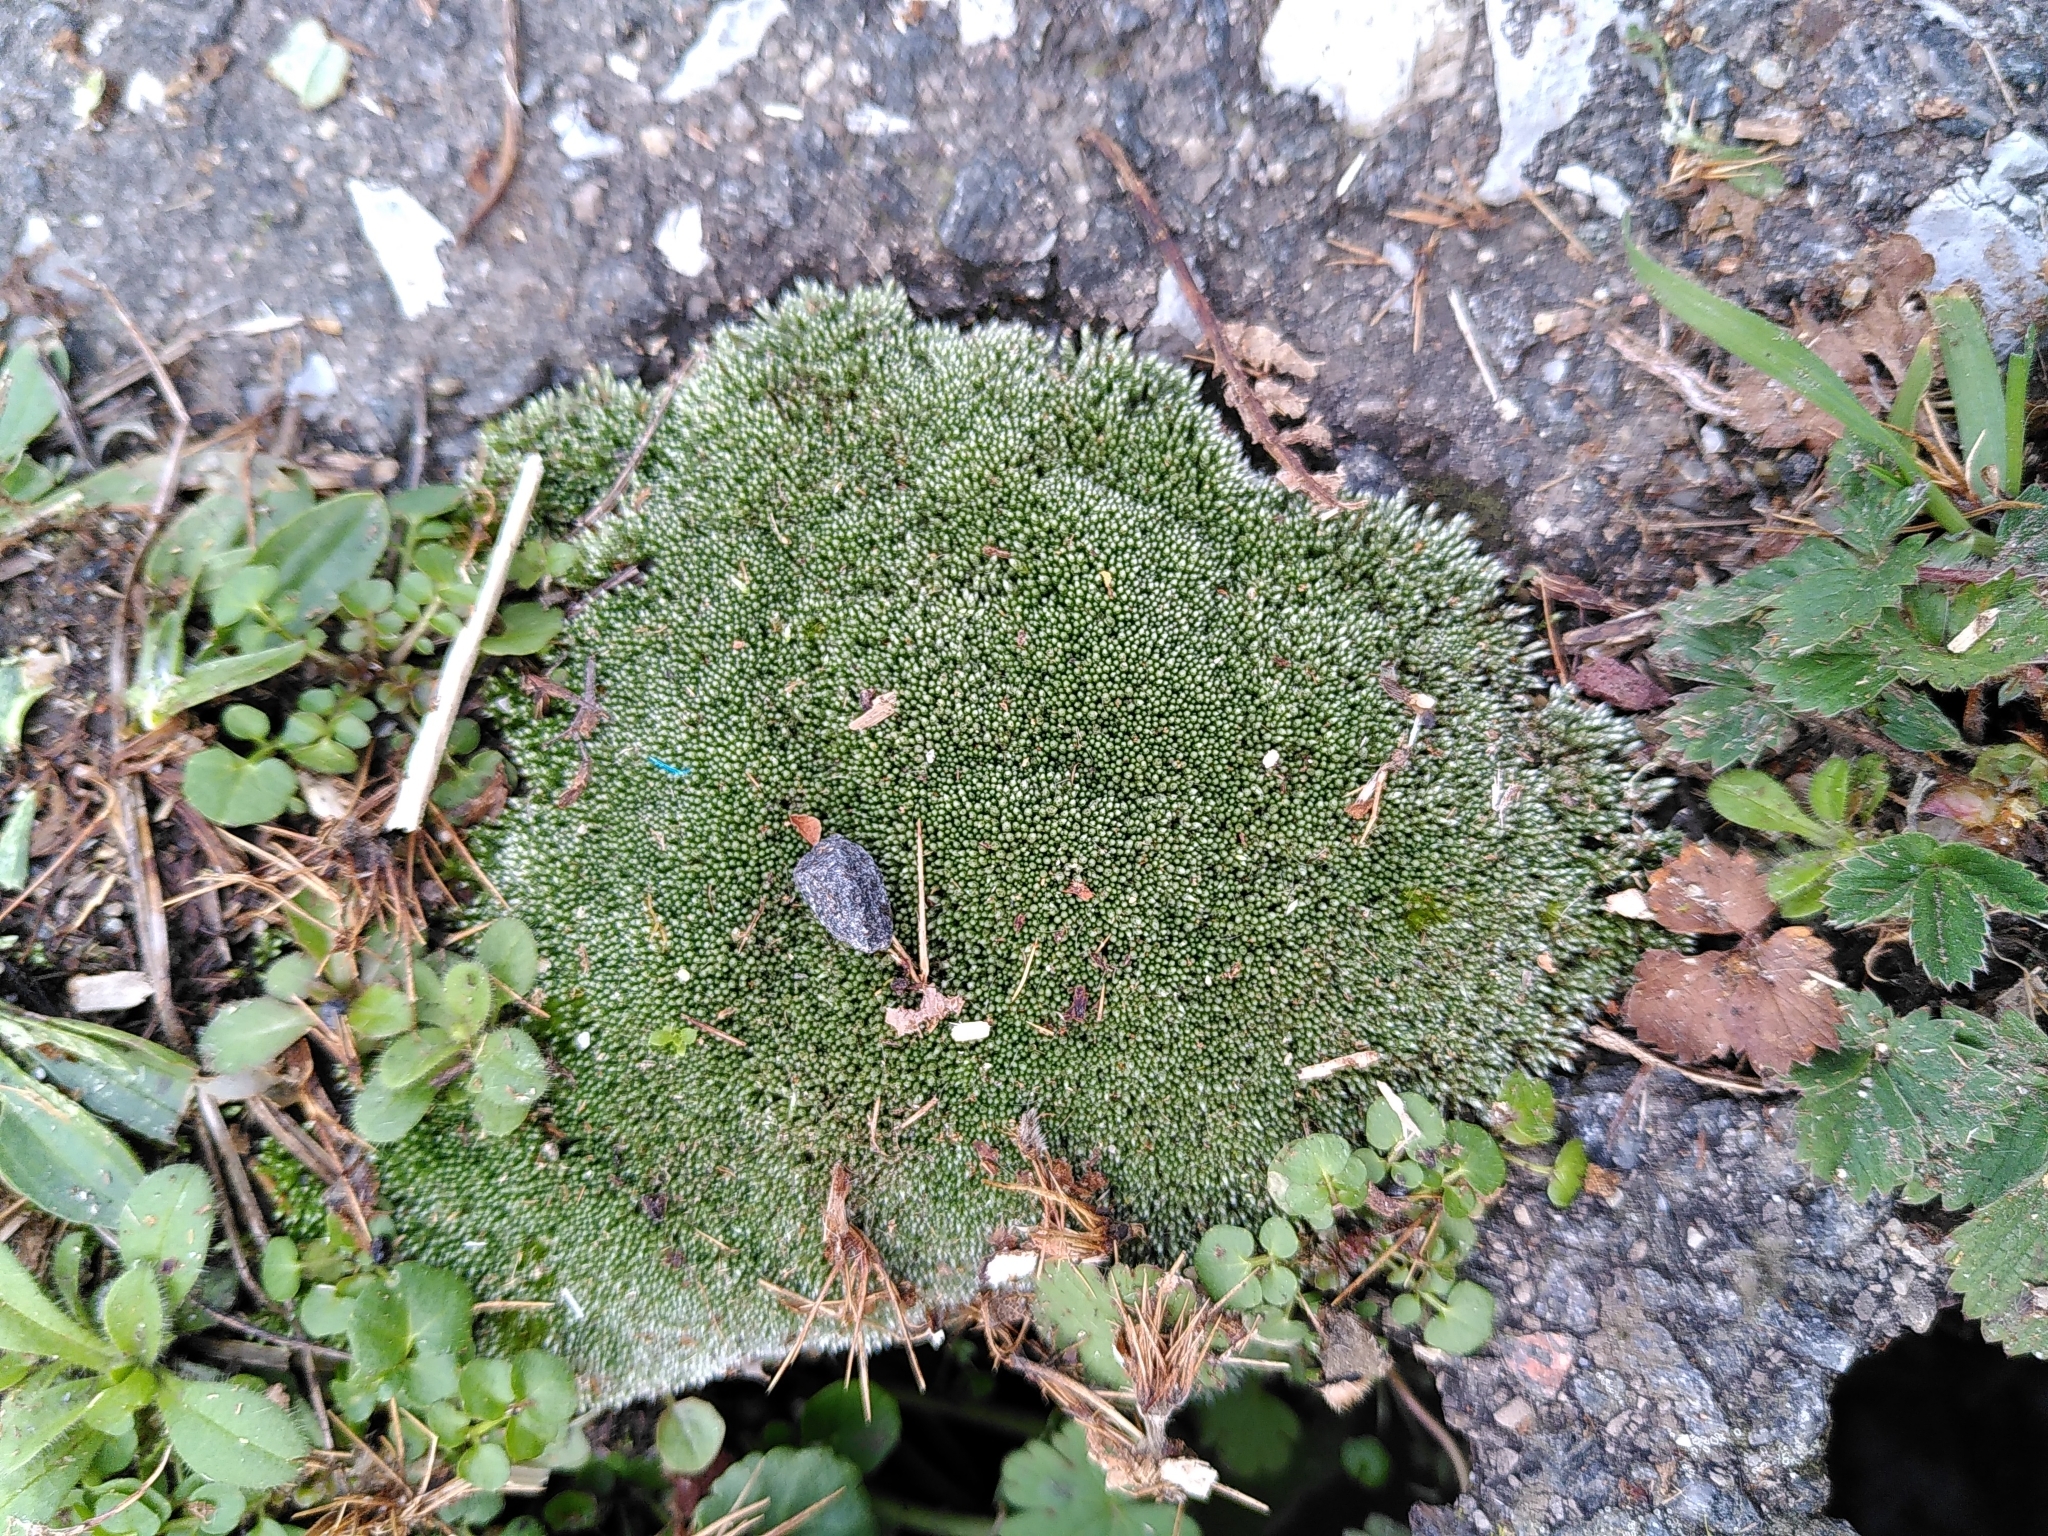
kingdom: Plantae
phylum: Bryophyta
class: Bryopsida
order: Bryales
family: Bryaceae
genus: Bryum
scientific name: Bryum argenteum
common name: Silver-moss
